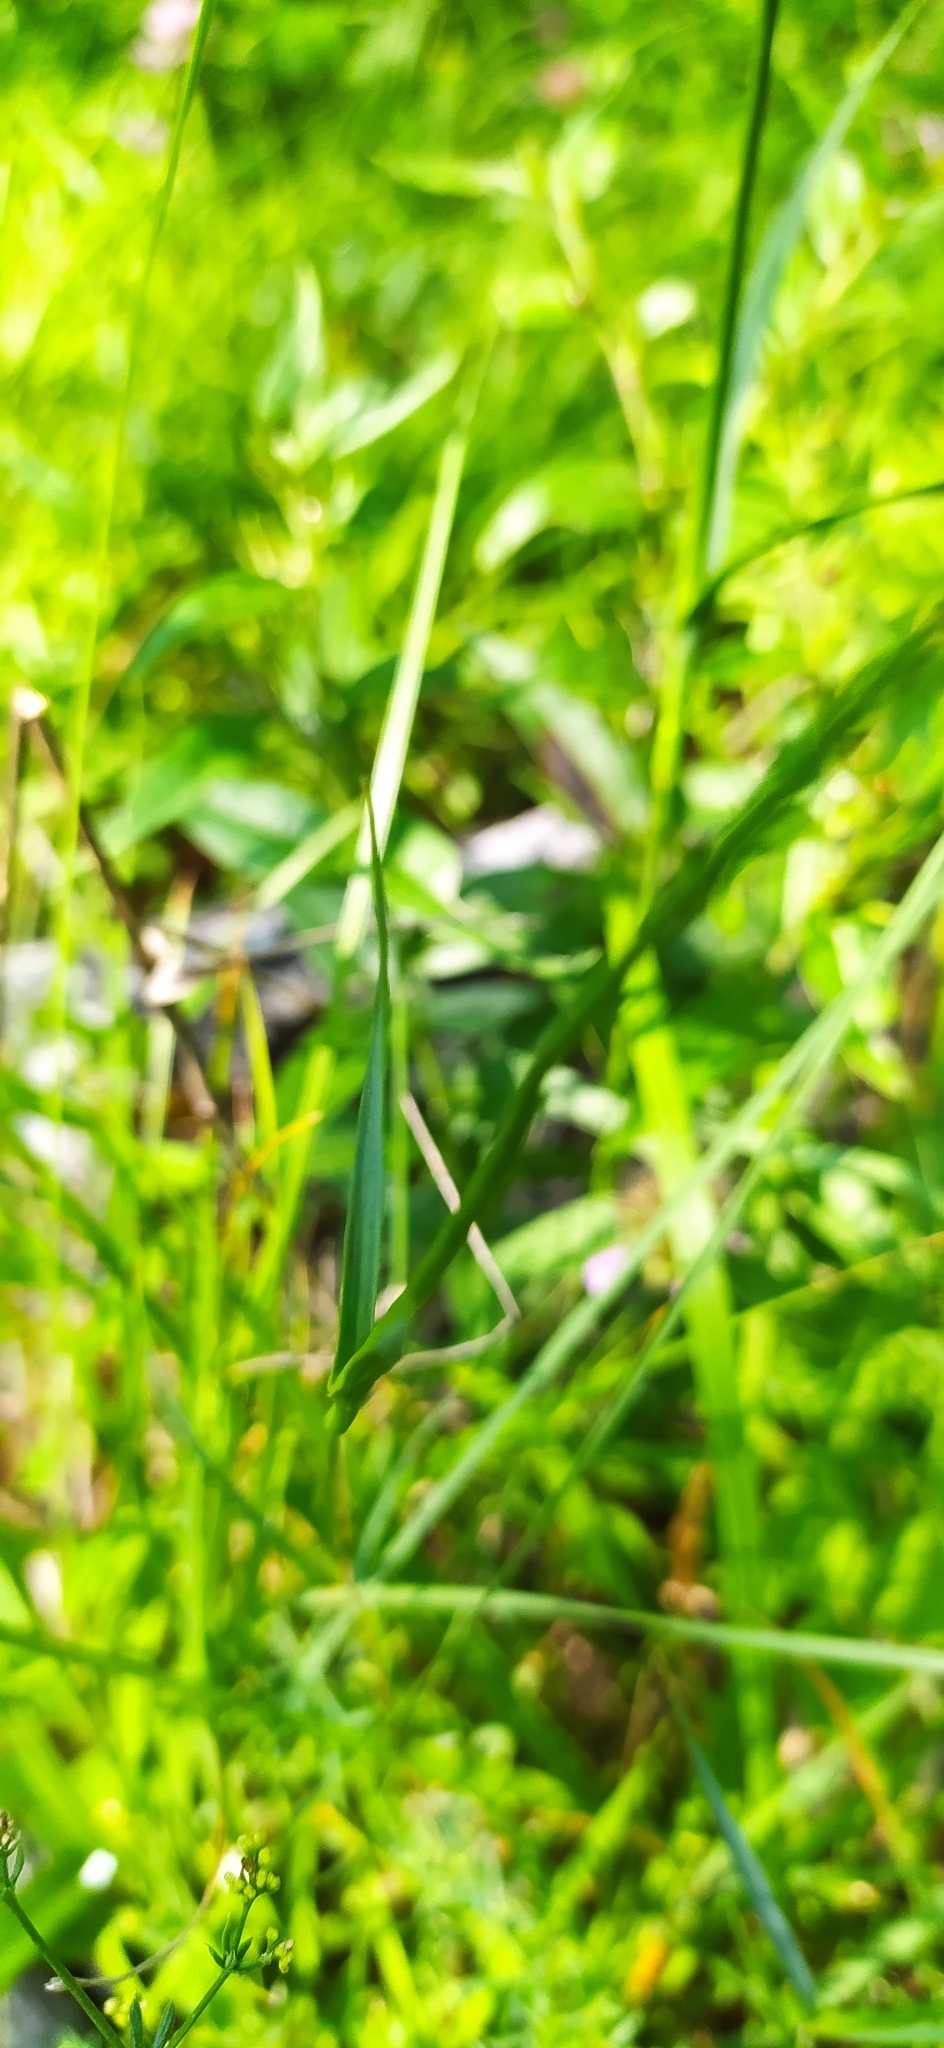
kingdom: Plantae
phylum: Tracheophyta
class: Magnoliopsida
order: Caryophyllales
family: Caryophyllaceae
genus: Dianthus
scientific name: Dianthus capitatus
